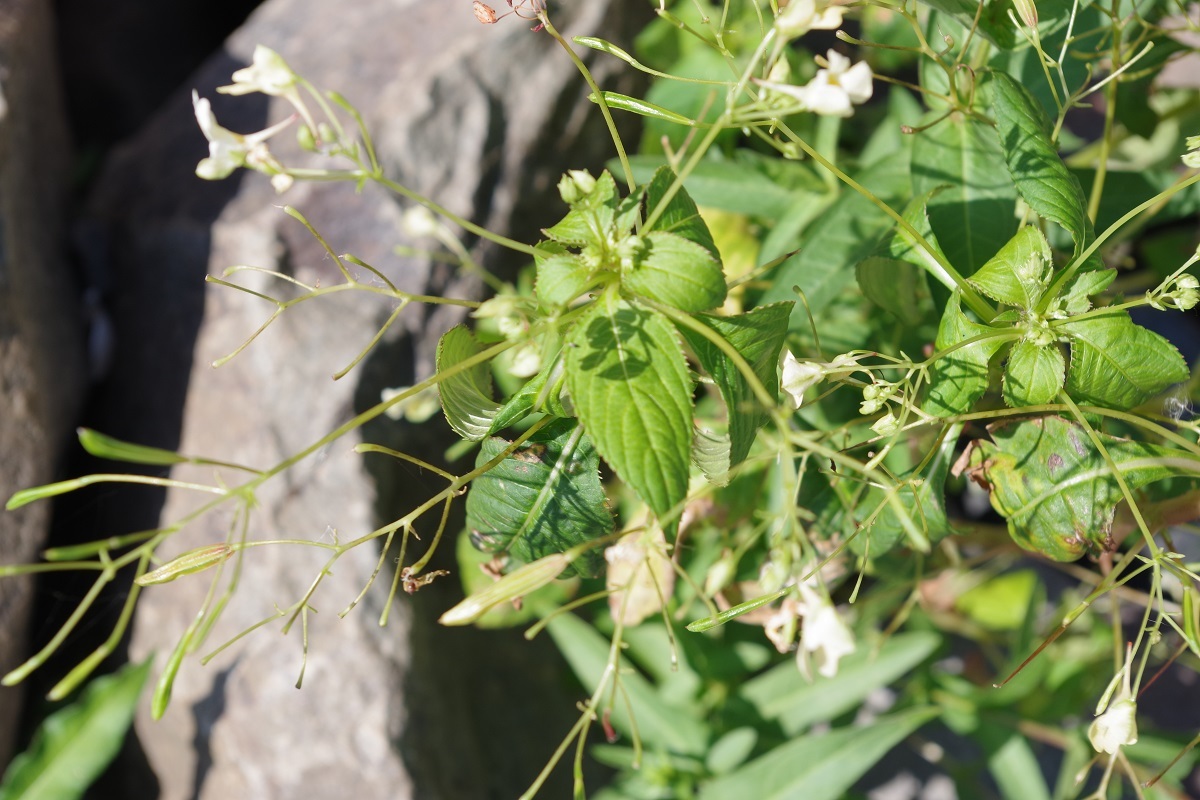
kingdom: Plantae
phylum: Tracheophyta
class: Magnoliopsida
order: Ericales
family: Balsaminaceae
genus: Impatiens
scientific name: Impatiens parviflora
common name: Small balsam
